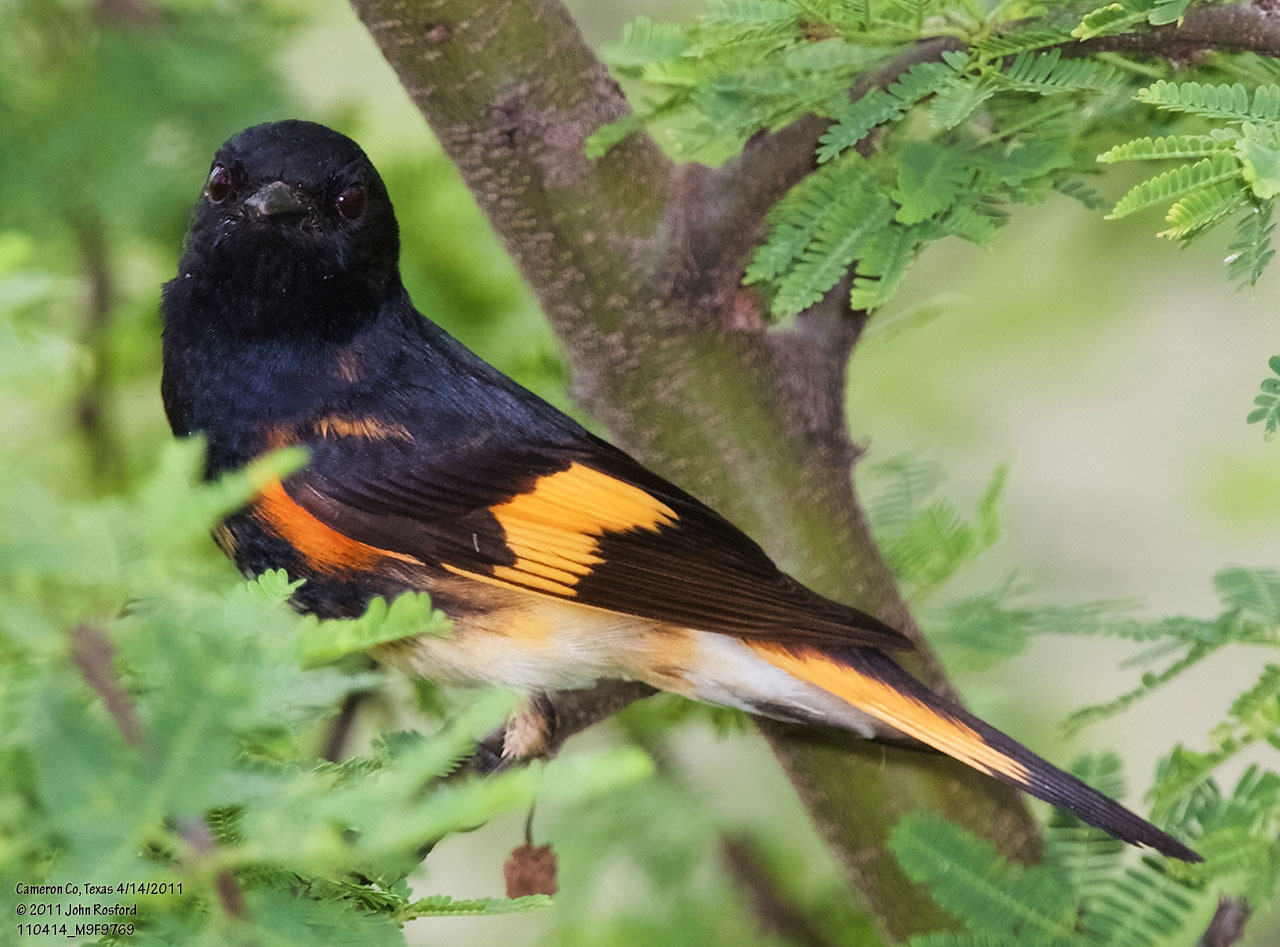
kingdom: Animalia
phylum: Chordata
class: Aves
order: Passeriformes
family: Parulidae
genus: Setophaga
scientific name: Setophaga ruticilla
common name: American redstart
